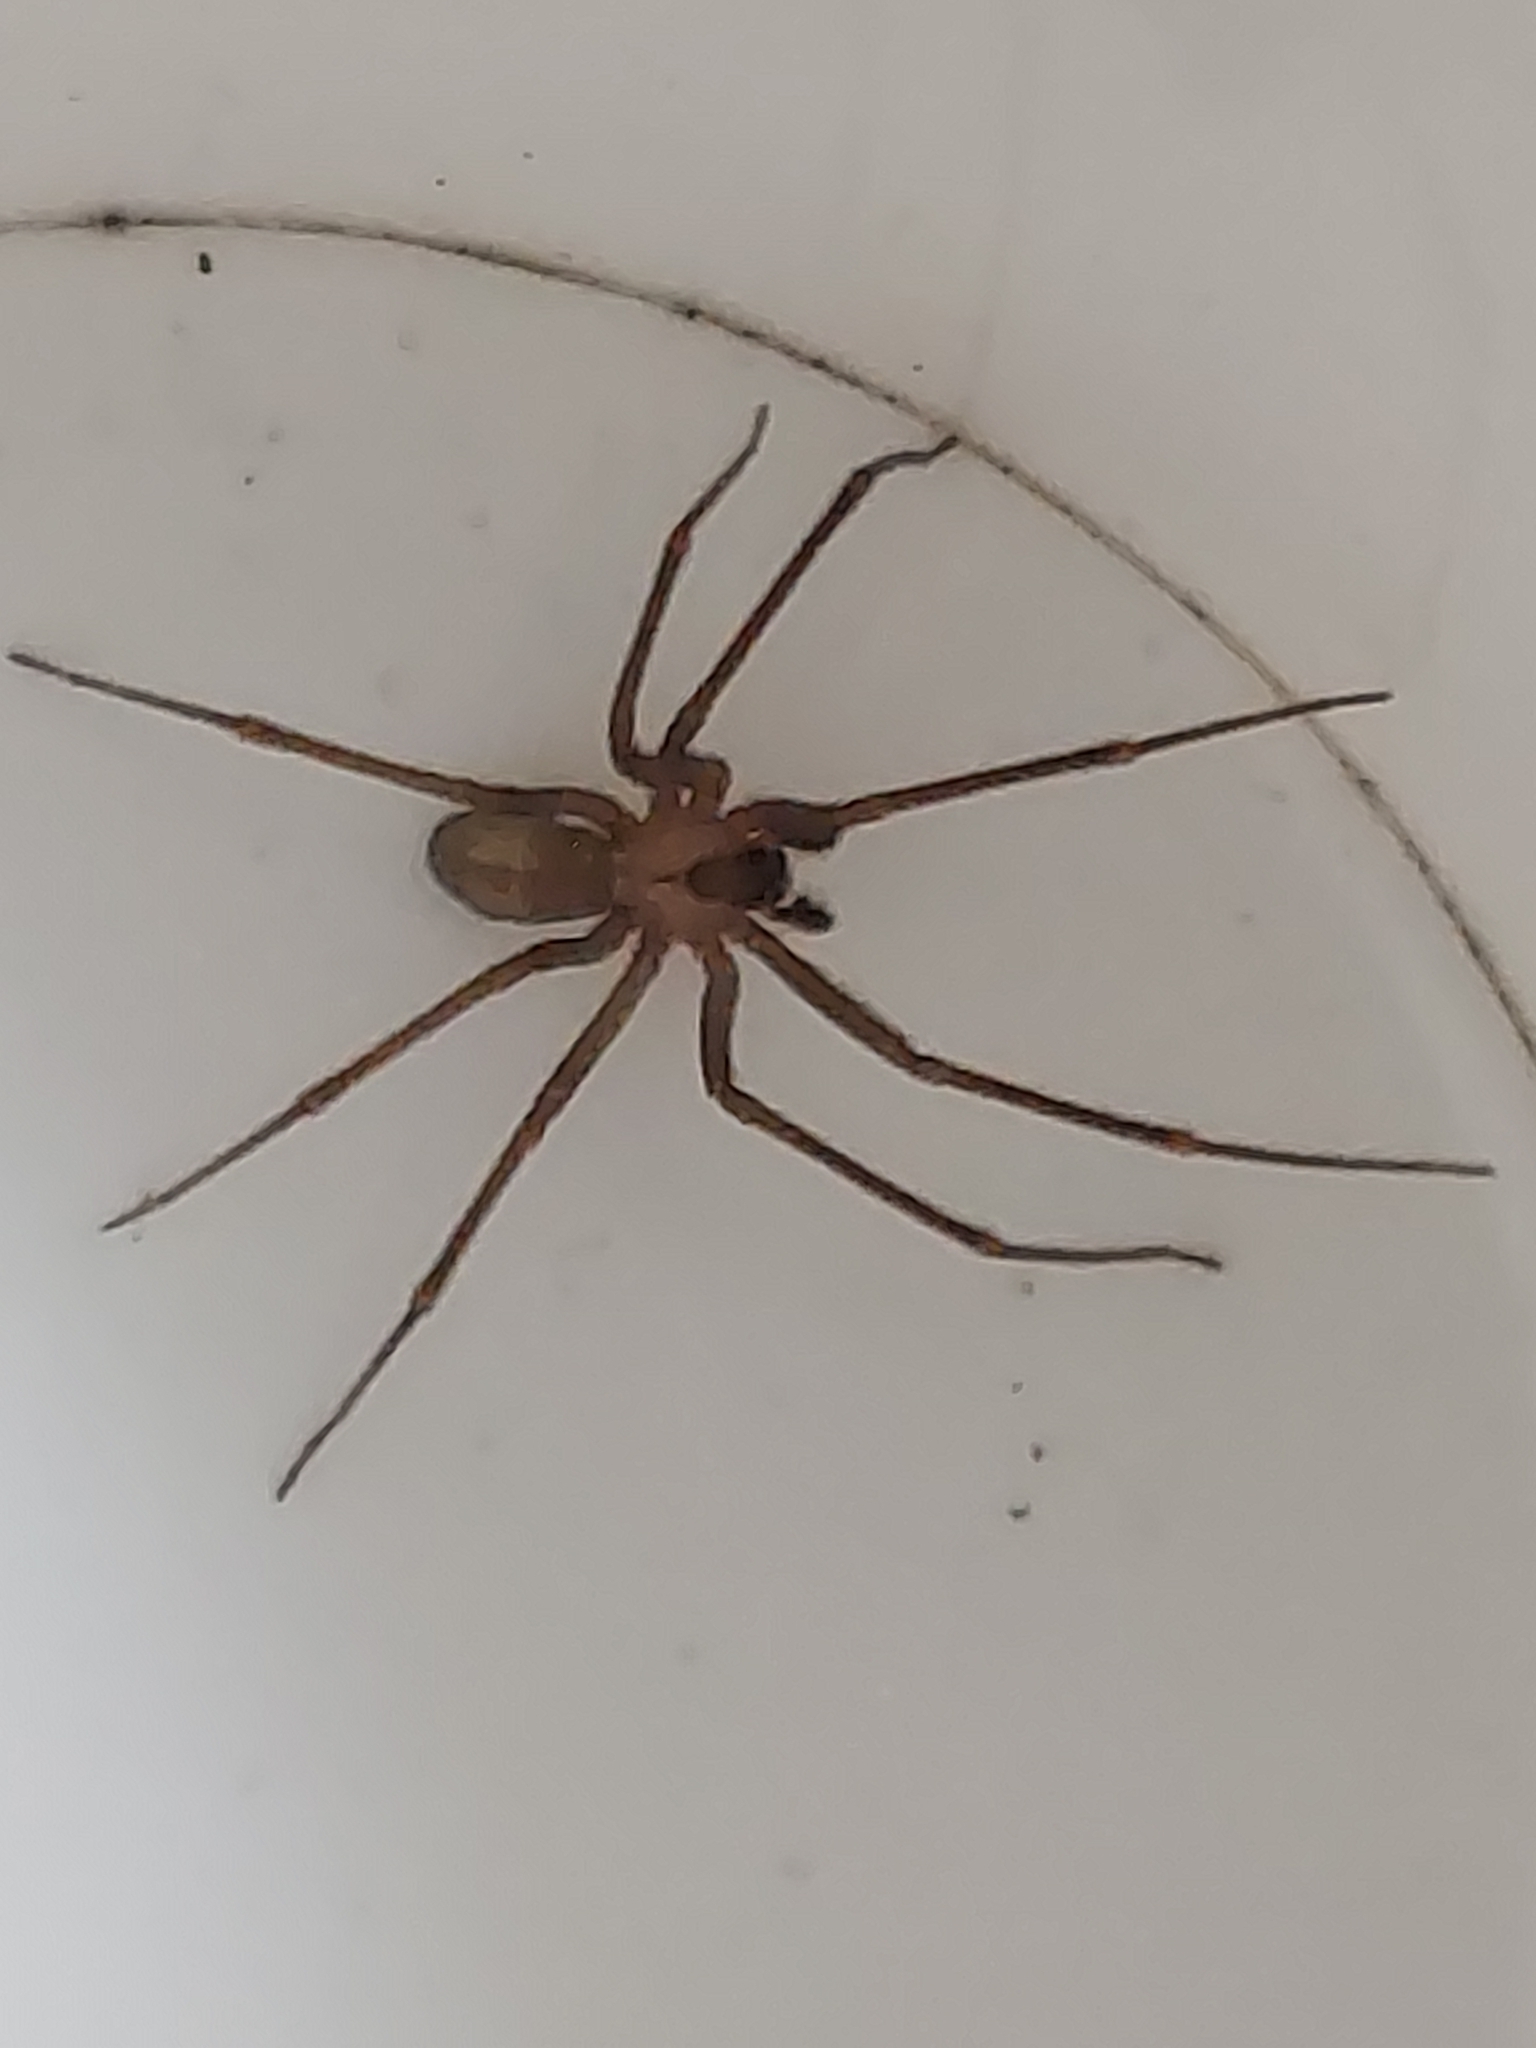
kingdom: Animalia
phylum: Arthropoda
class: Arachnida
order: Araneae
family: Sicariidae
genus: Loxosceles
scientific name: Loxosceles reclusa
